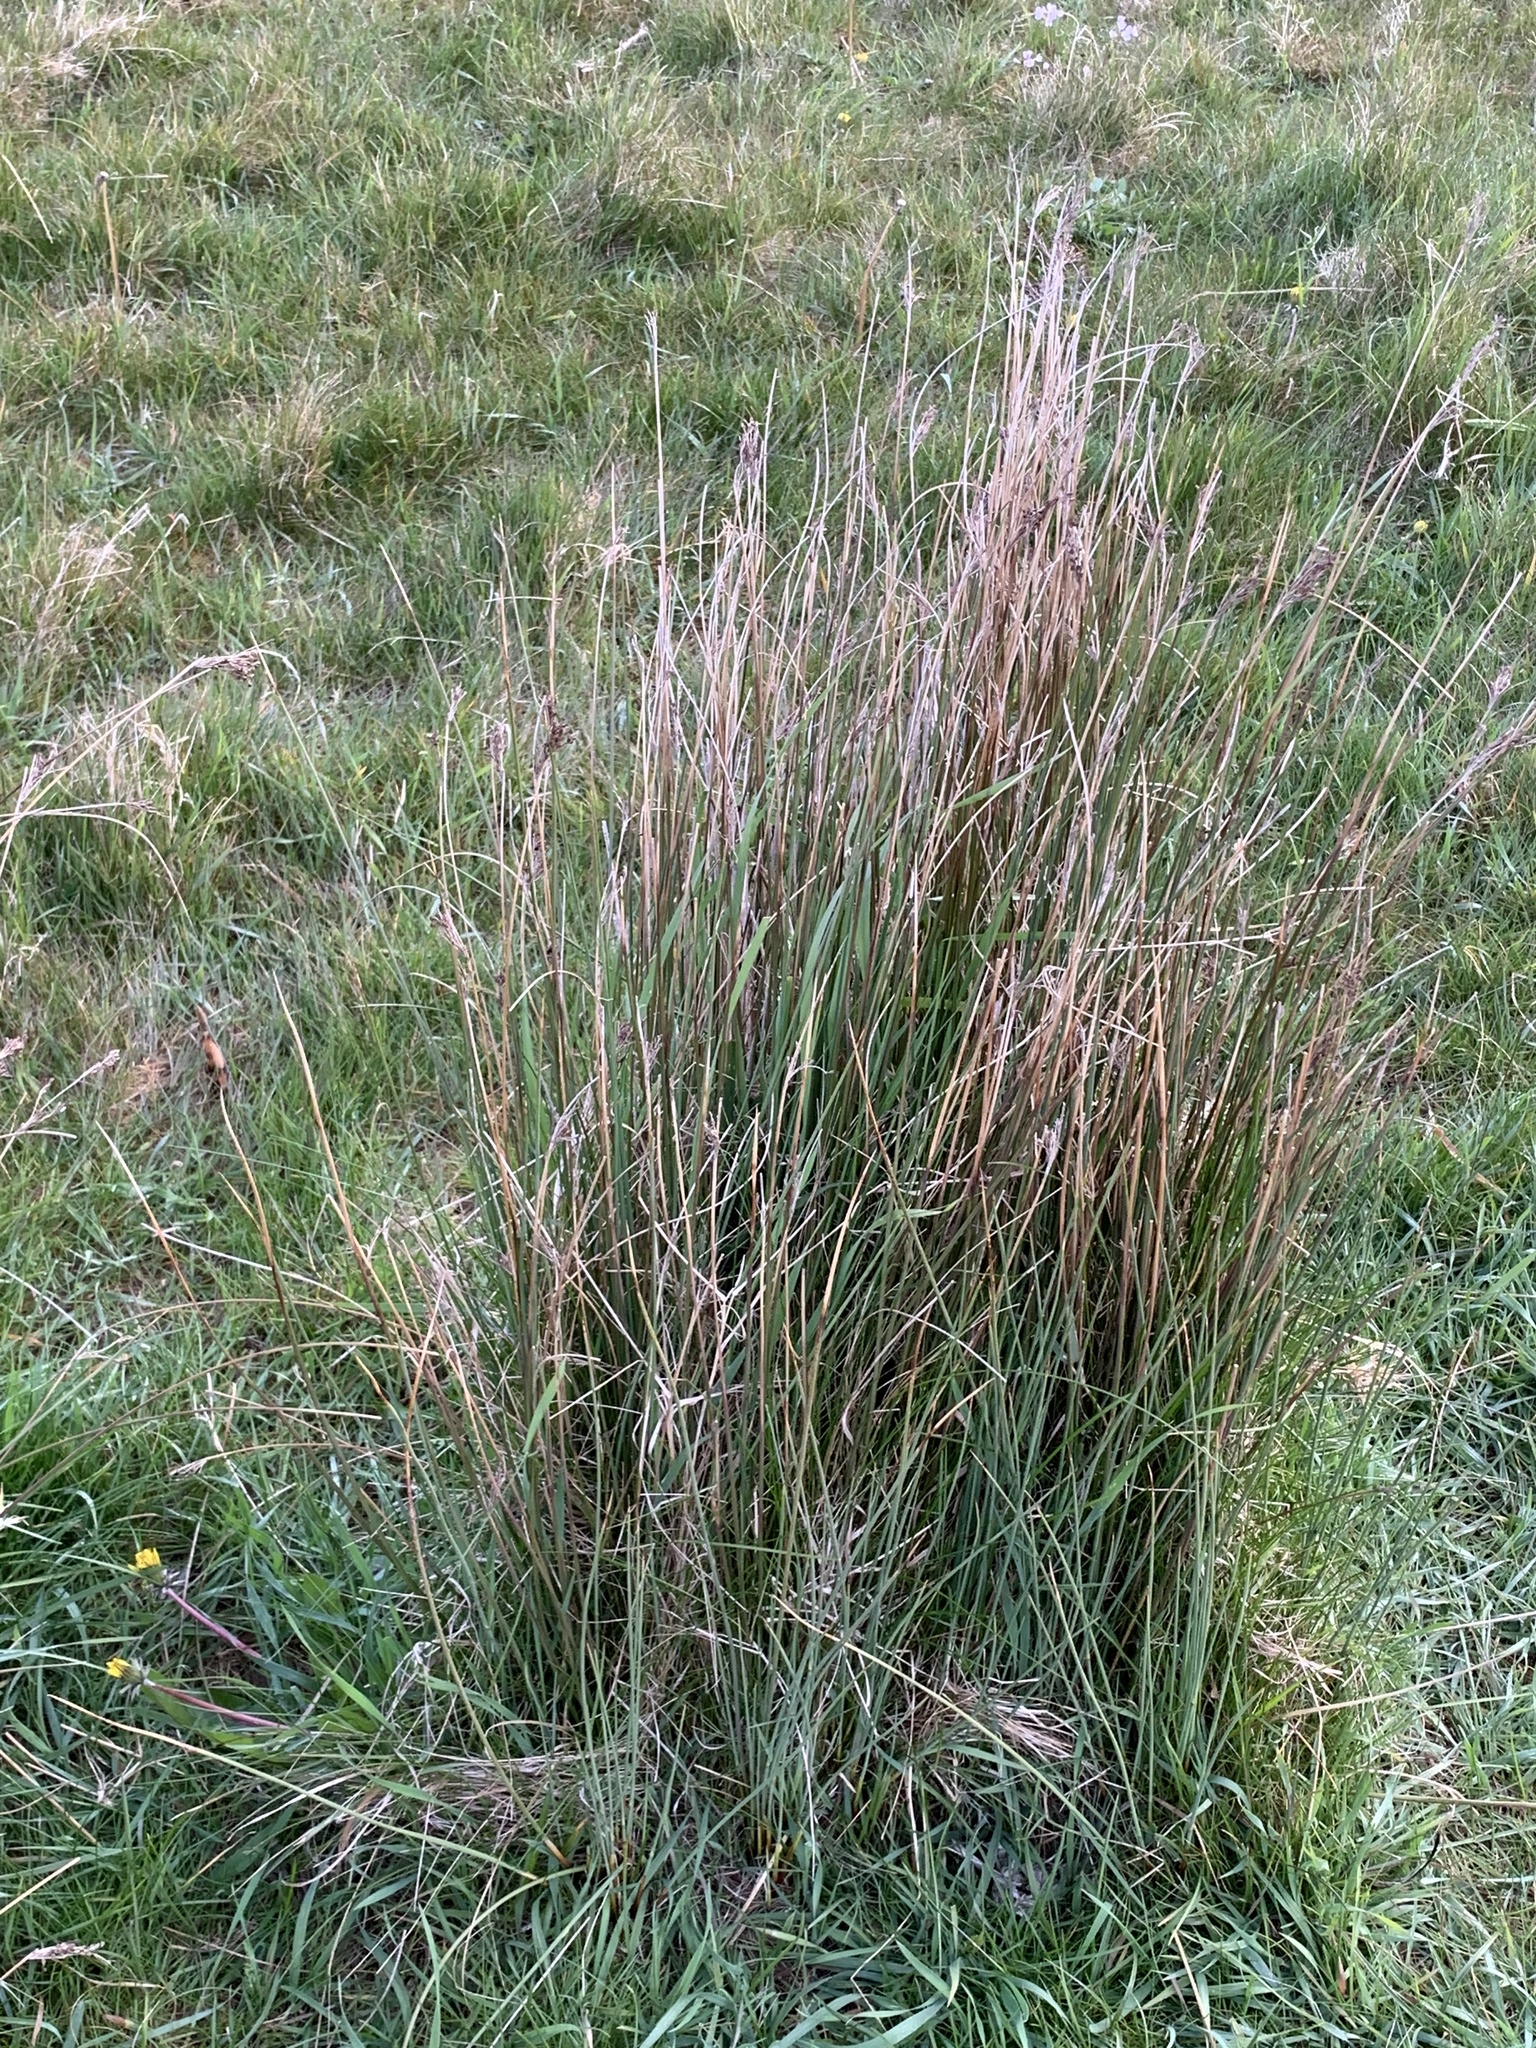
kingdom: Plantae
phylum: Tracheophyta
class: Liliopsida
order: Poales
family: Juncaceae
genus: Juncus
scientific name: Juncus inflexus
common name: Hard rush
